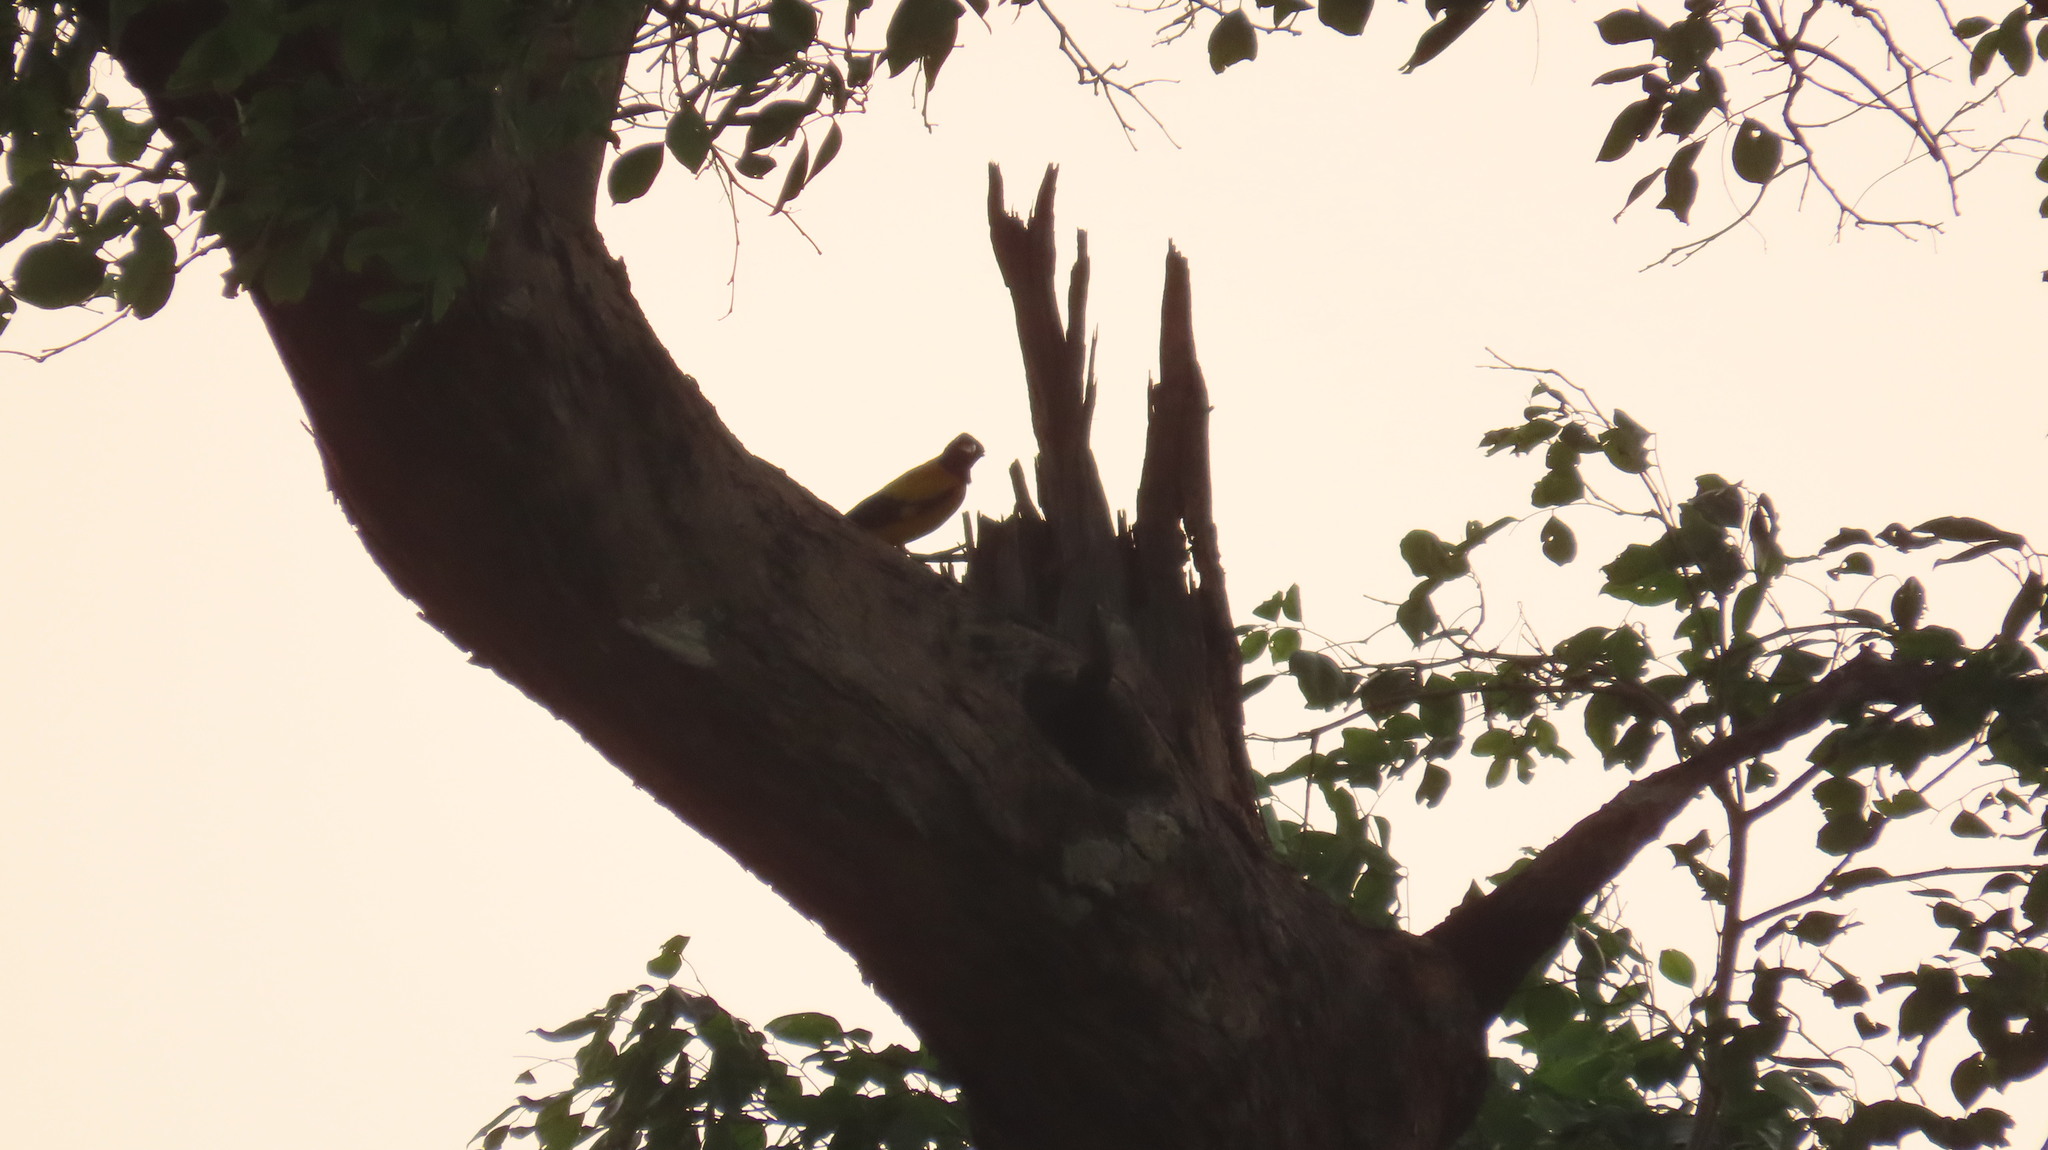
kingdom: Animalia
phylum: Chordata
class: Aves
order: Passeriformes
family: Oriolidae
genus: Oriolus
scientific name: Oriolus xanthornus
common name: Black-hooded oriole
